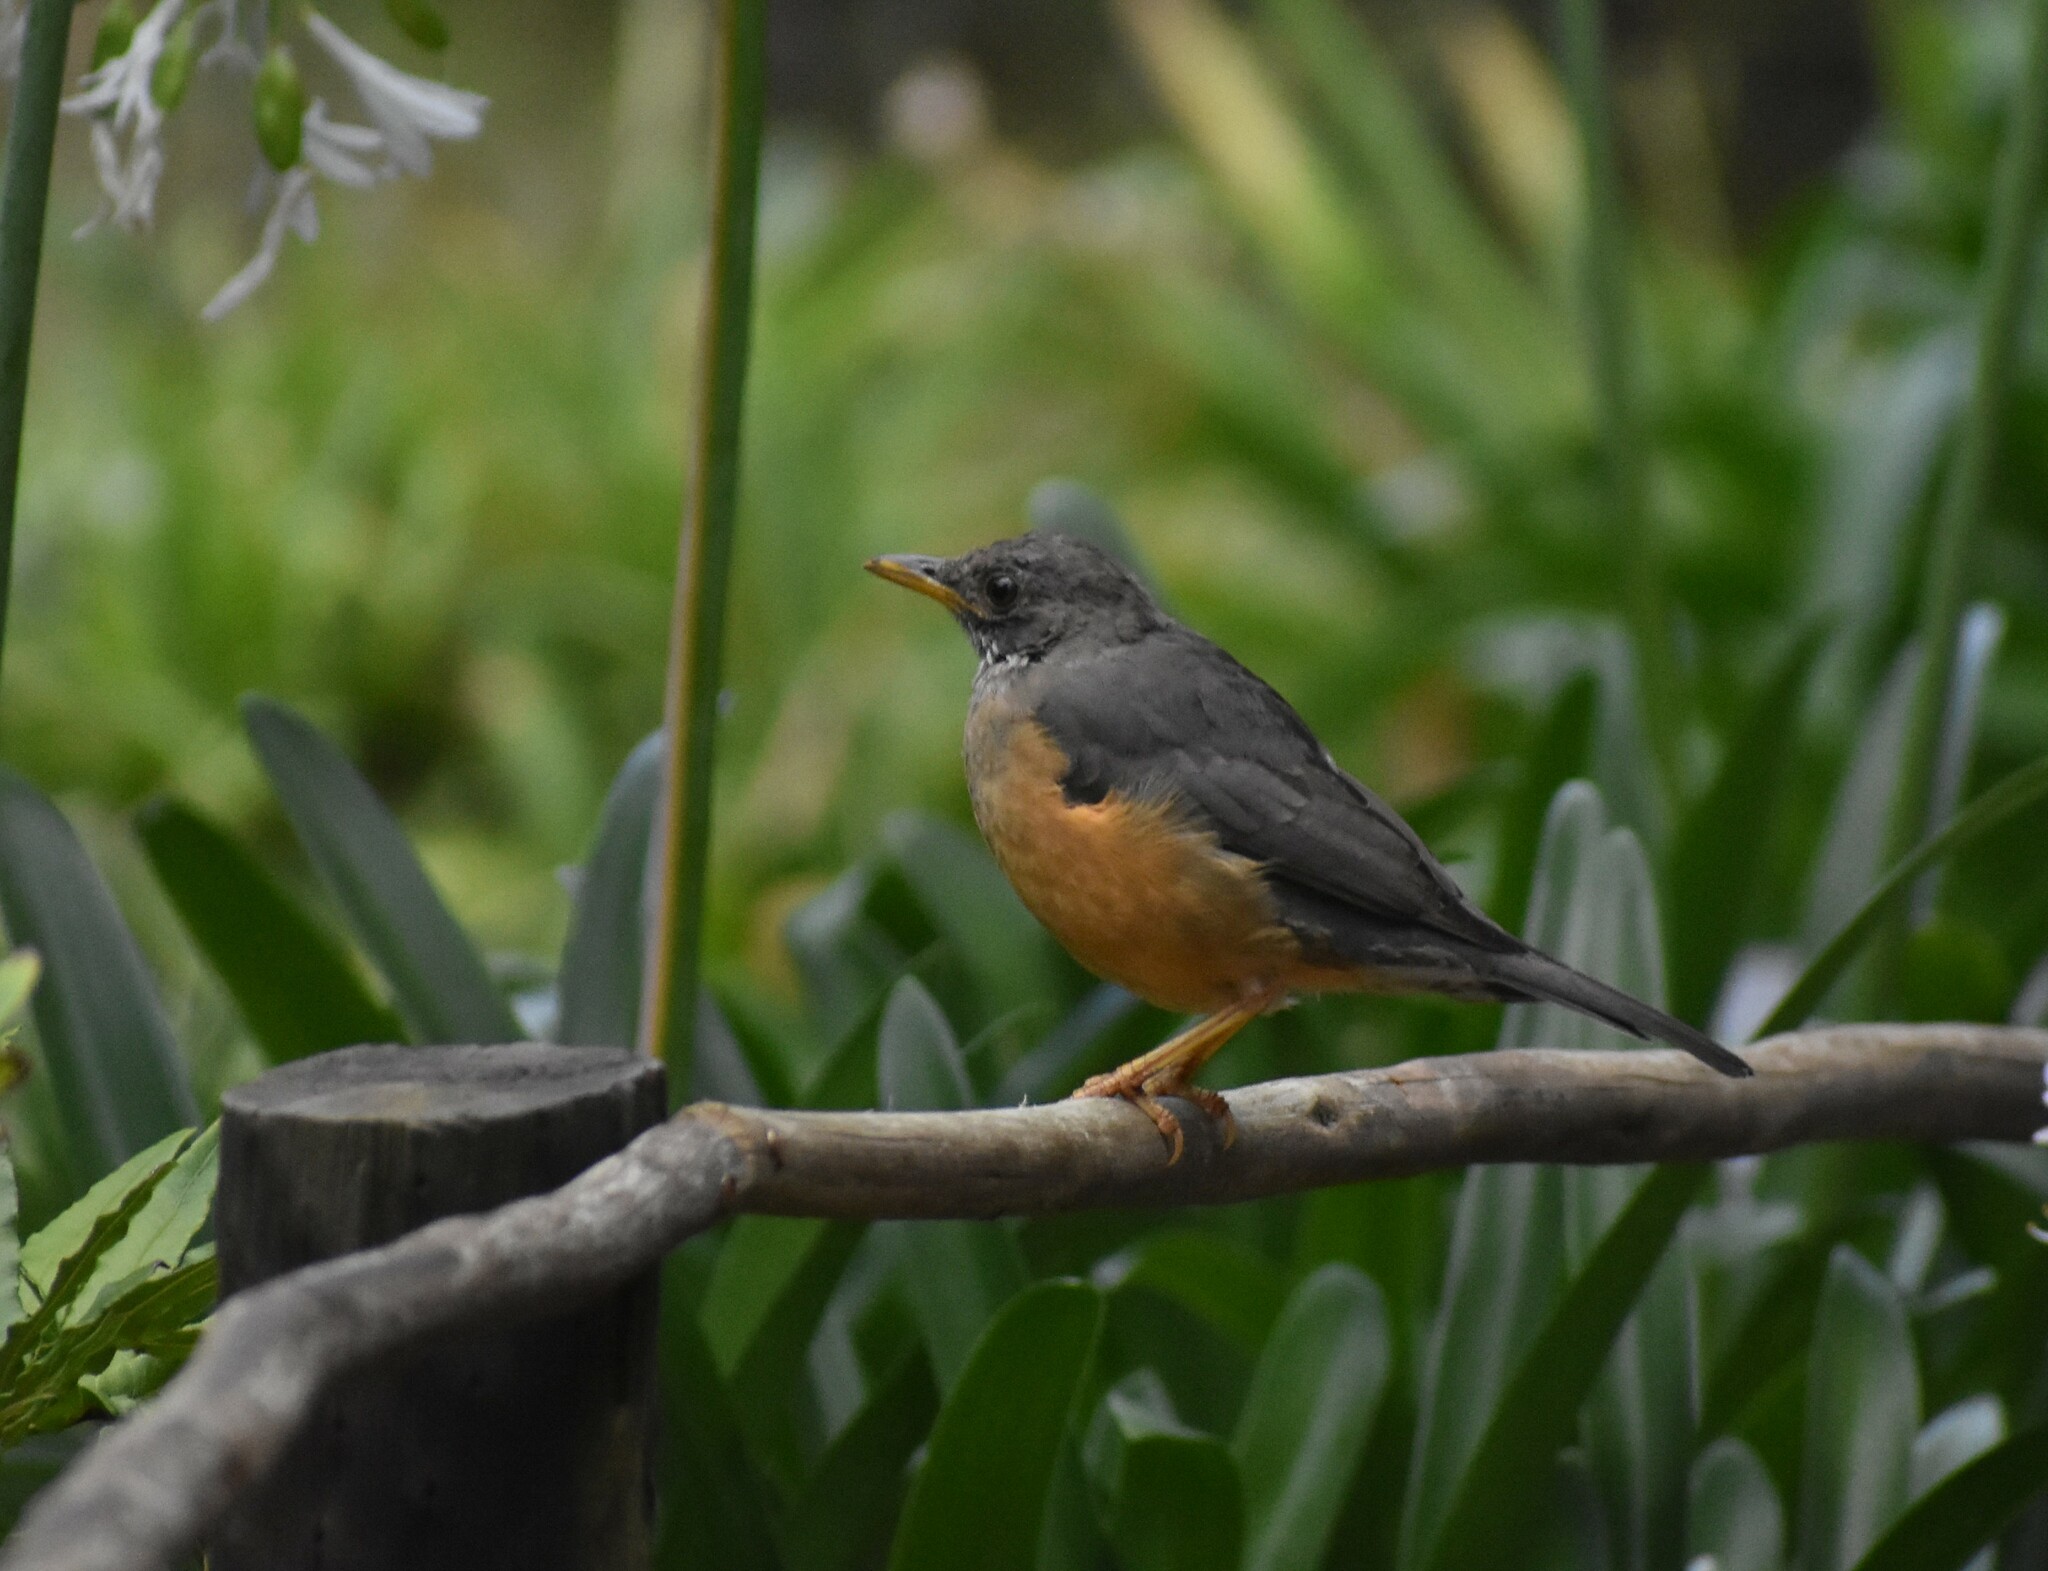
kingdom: Animalia
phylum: Chordata
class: Aves
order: Passeriformes
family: Turdidae
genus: Turdus
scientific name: Turdus olivaceus
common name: Olive thrush
